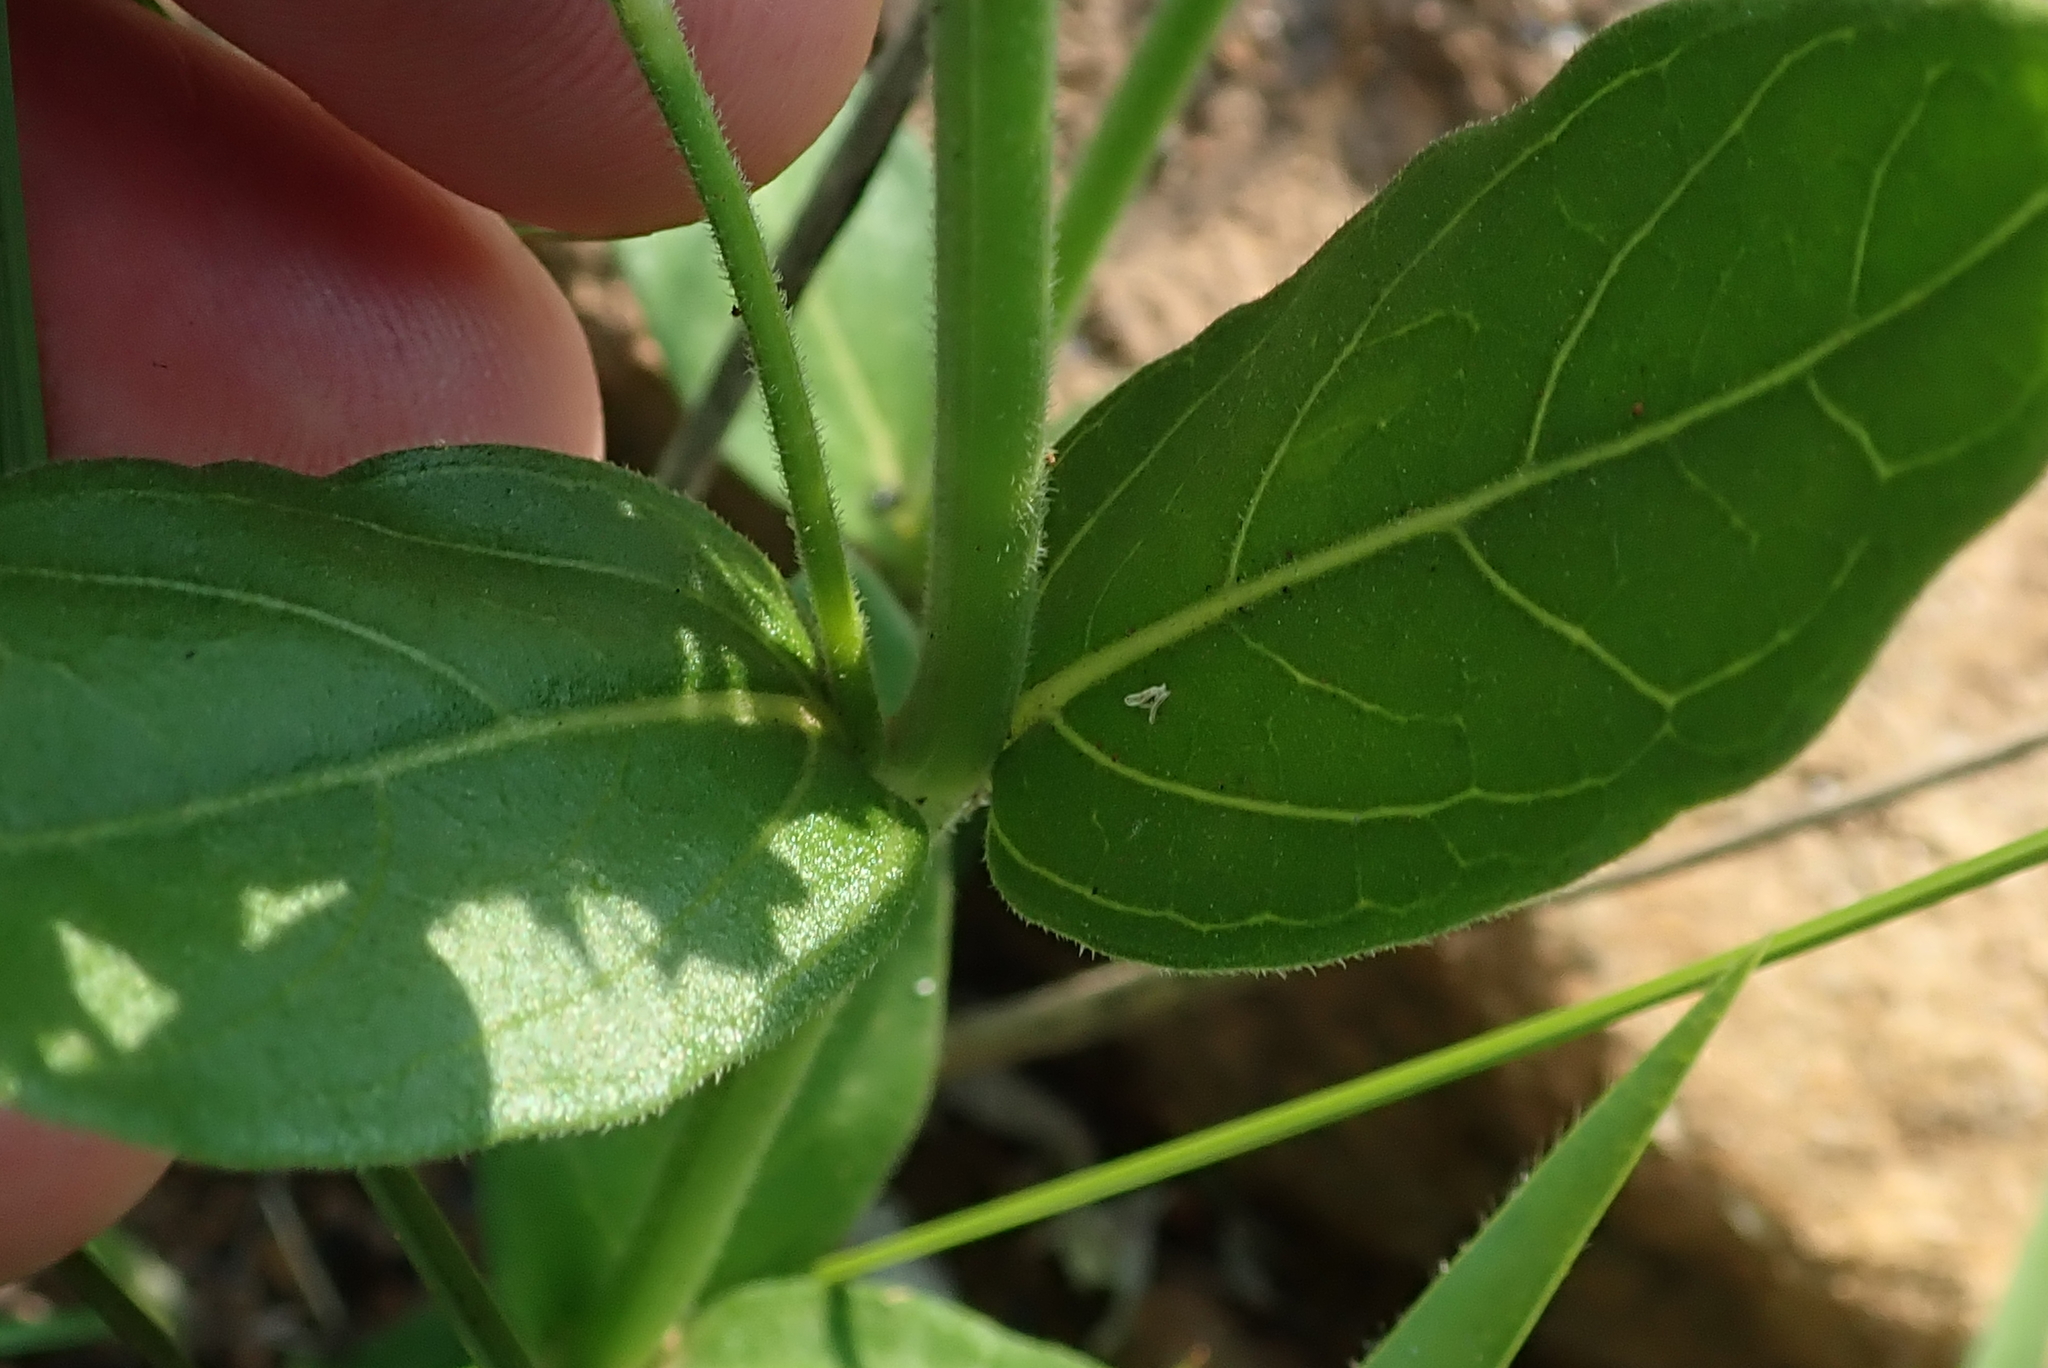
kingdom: Plantae
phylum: Tracheophyta
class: Magnoliopsida
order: Lamiales
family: Acanthaceae
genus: Justicia
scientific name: Justicia andromeda
